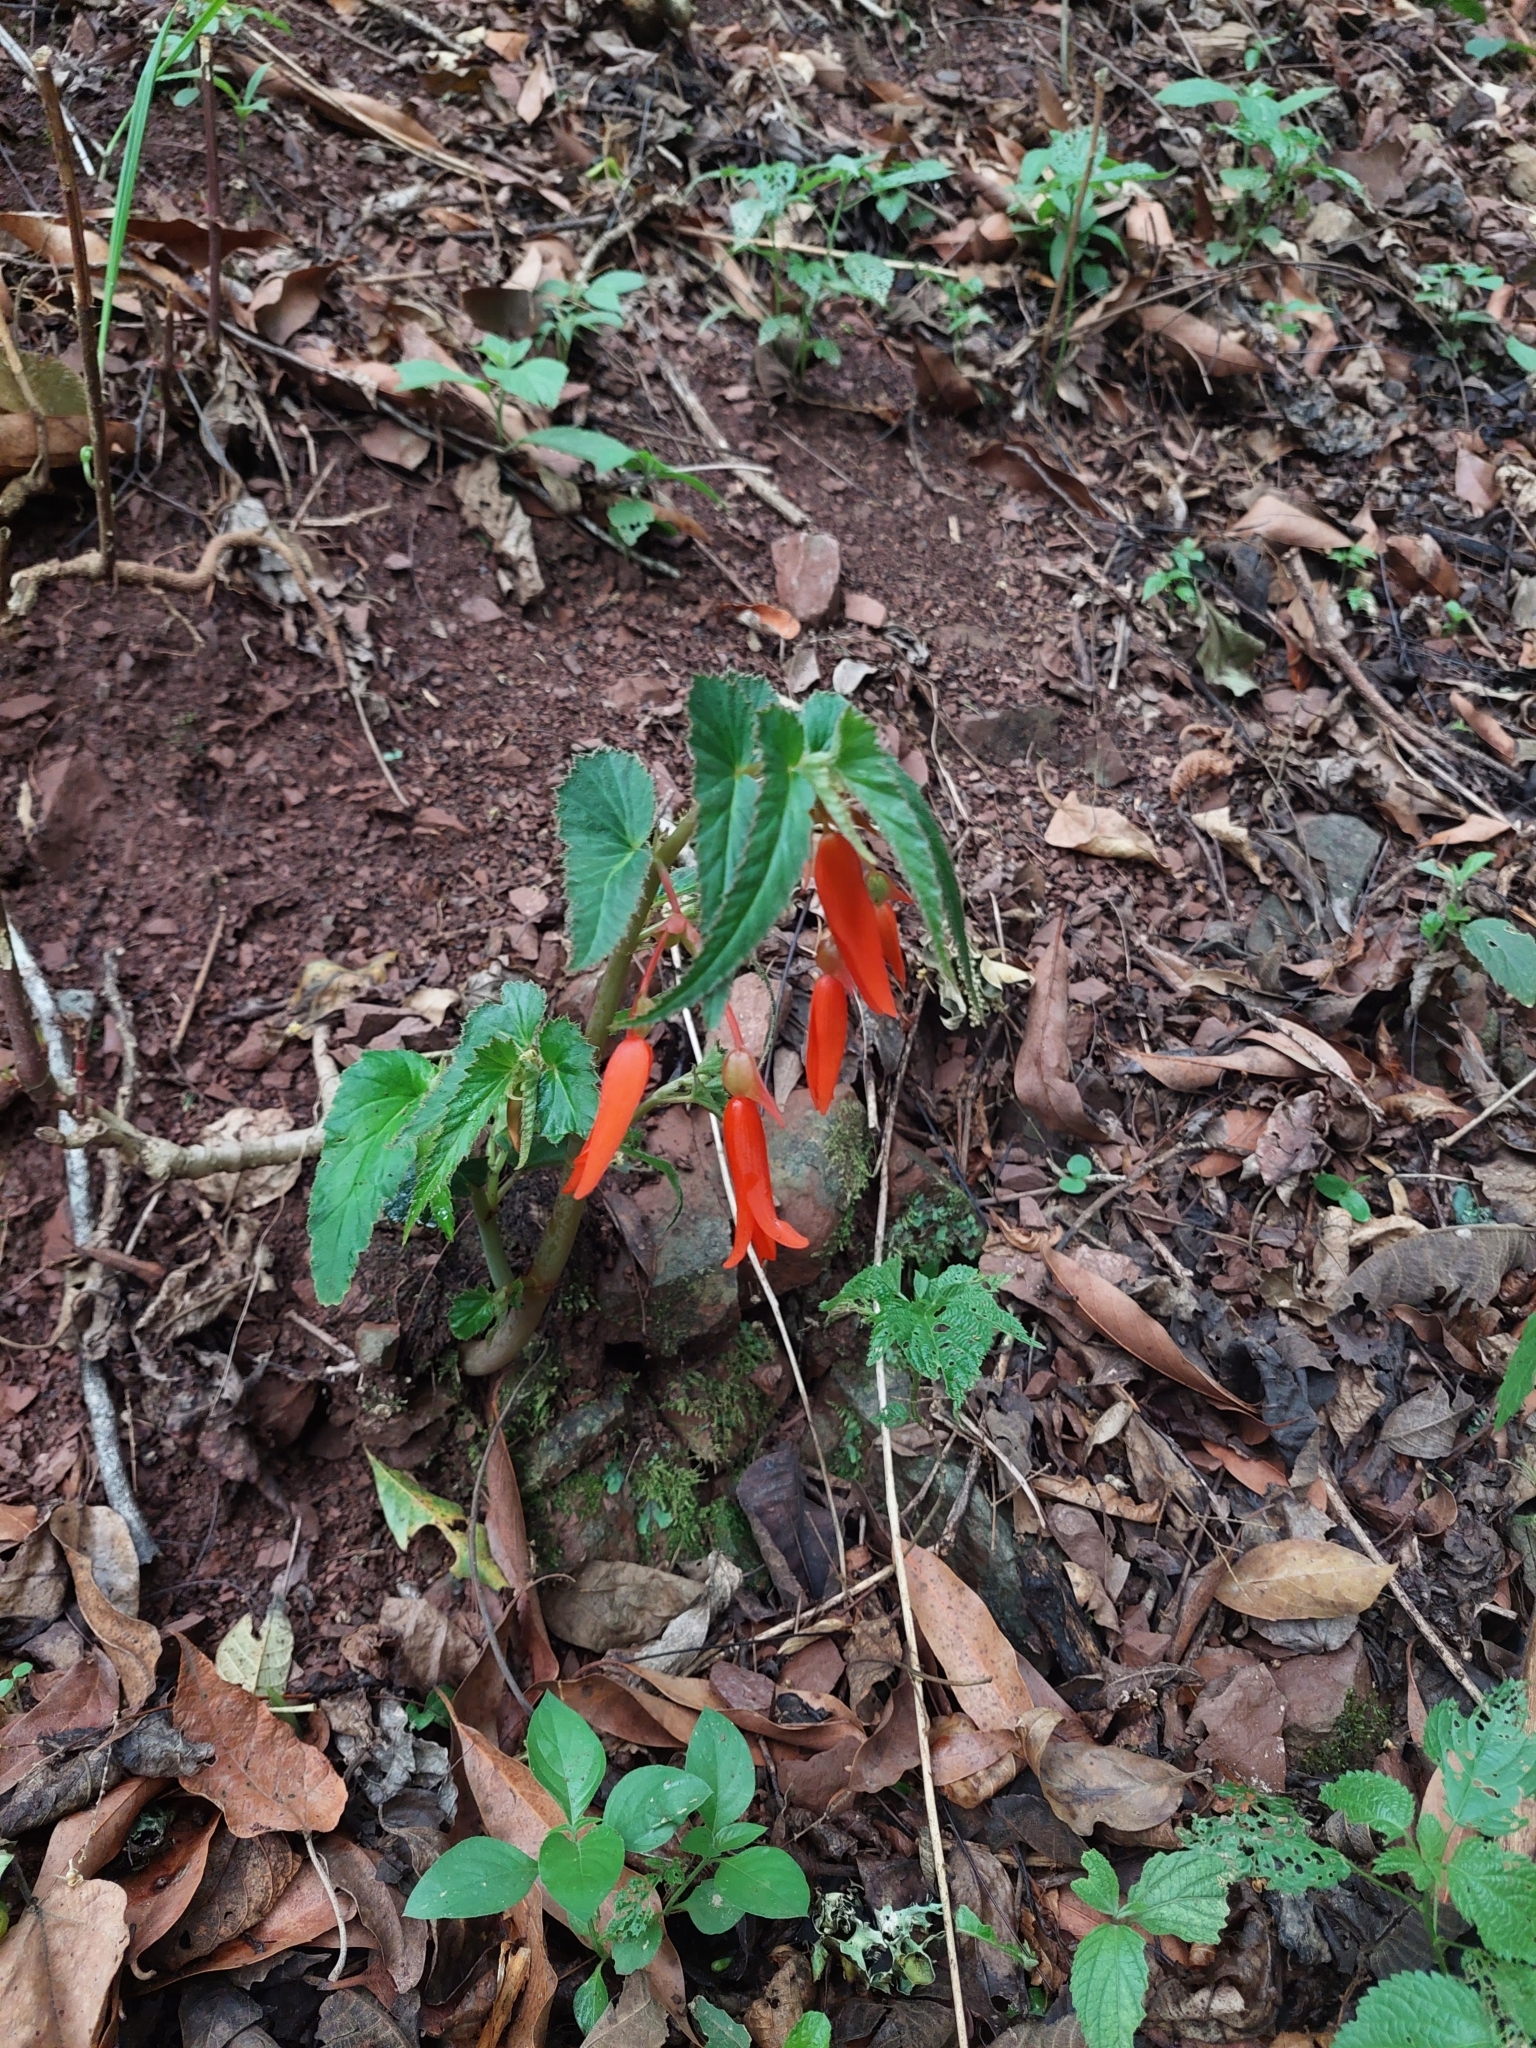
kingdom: Plantae
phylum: Tracheophyta
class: Magnoliopsida
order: Cucurbitales
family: Begoniaceae
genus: Begonia
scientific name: Begonia boliviensis
